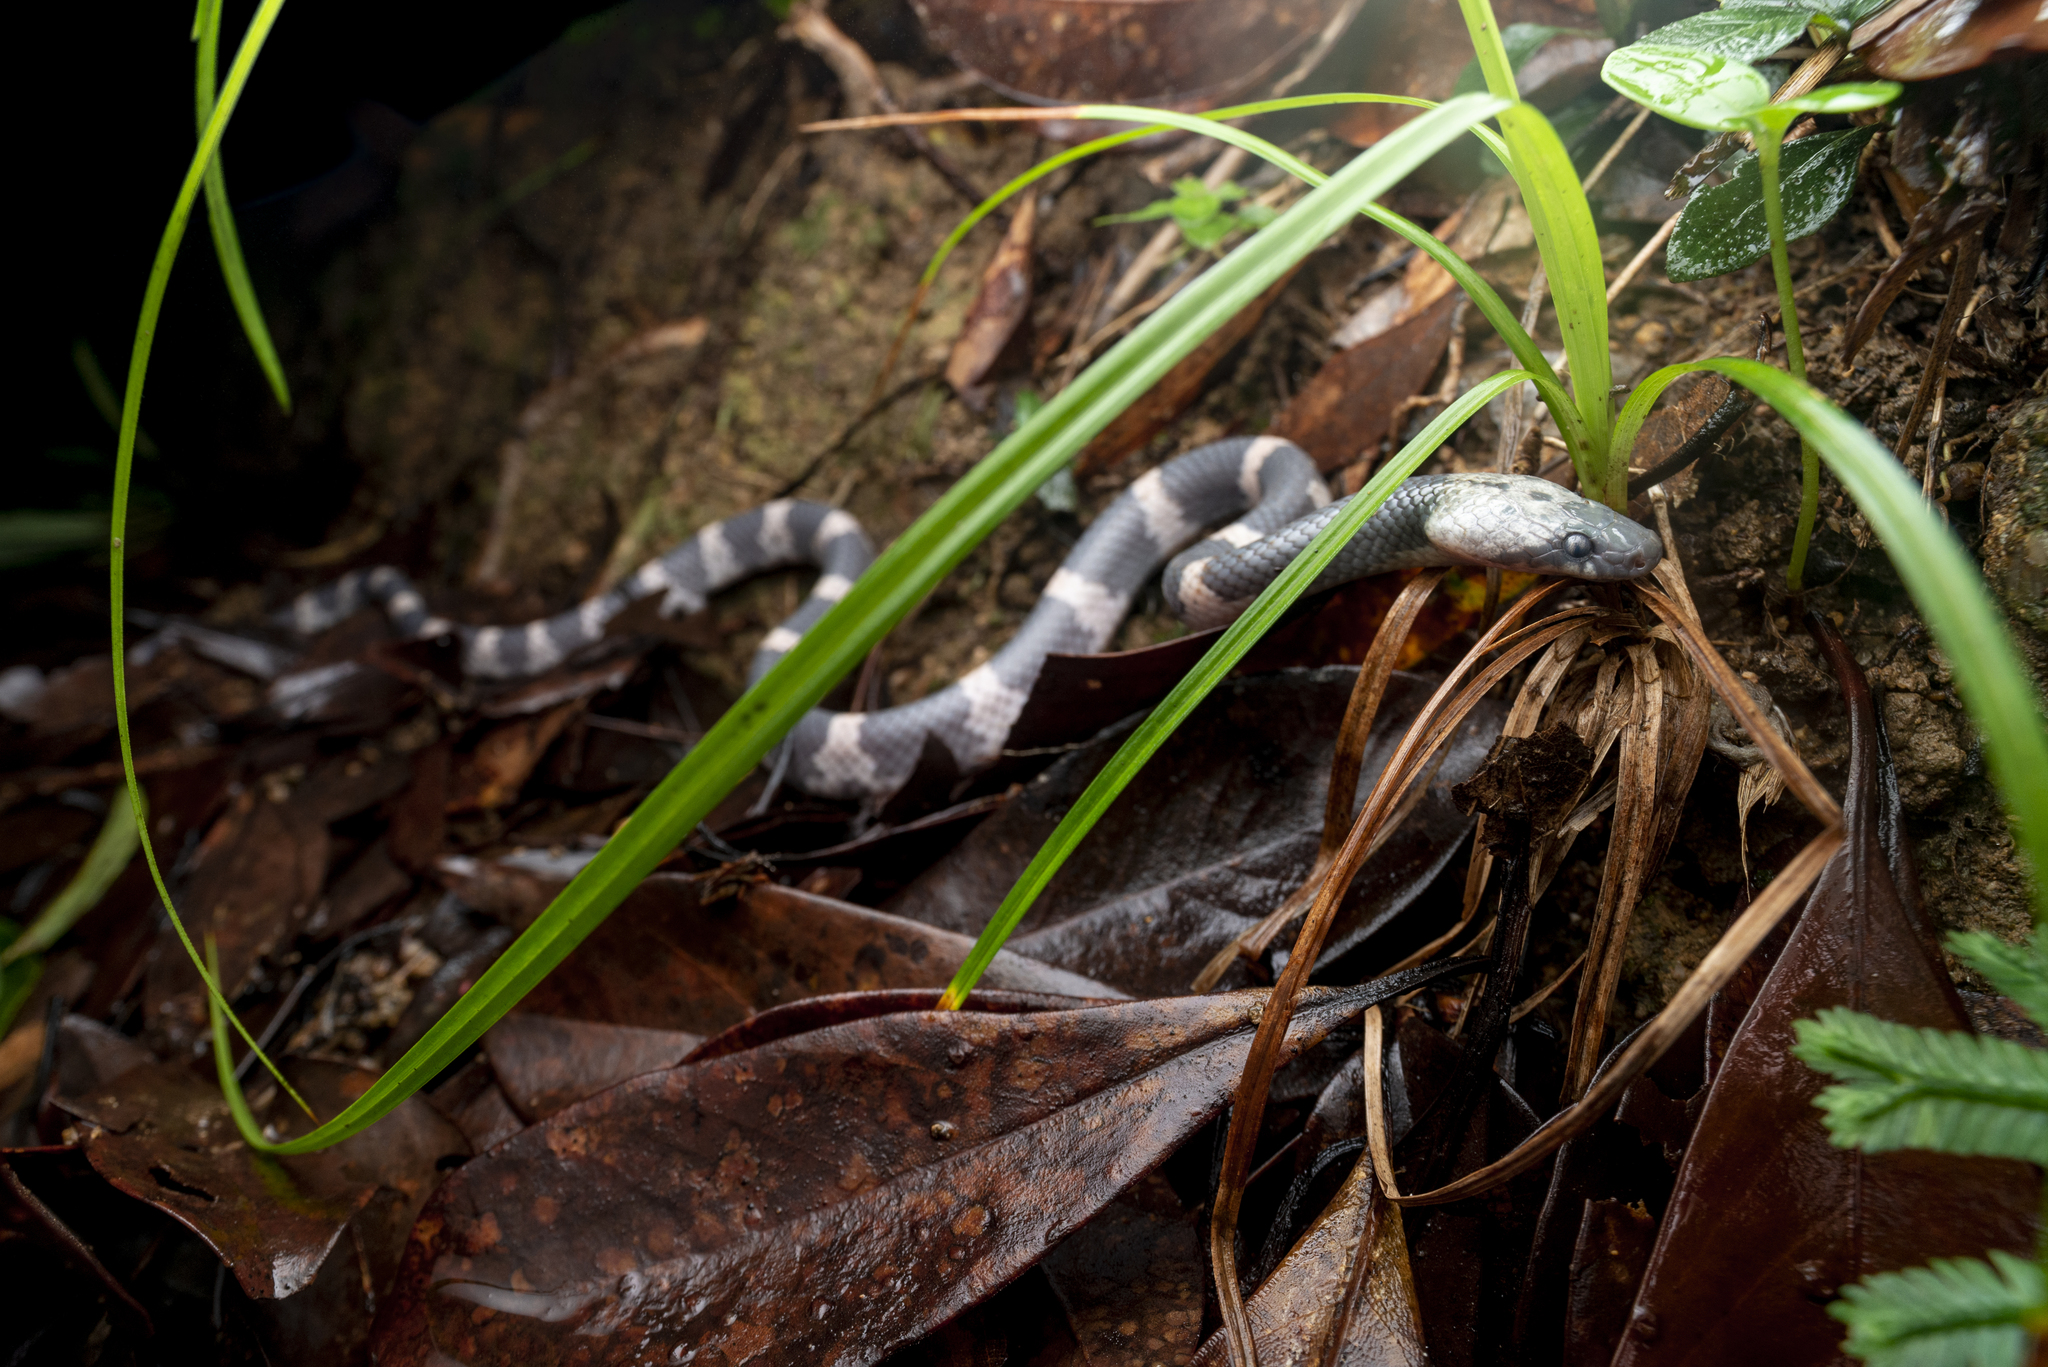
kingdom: Animalia
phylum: Chordata
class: Squamata
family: Colubridae
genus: Lycodon
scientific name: Lycodon futsingensis
